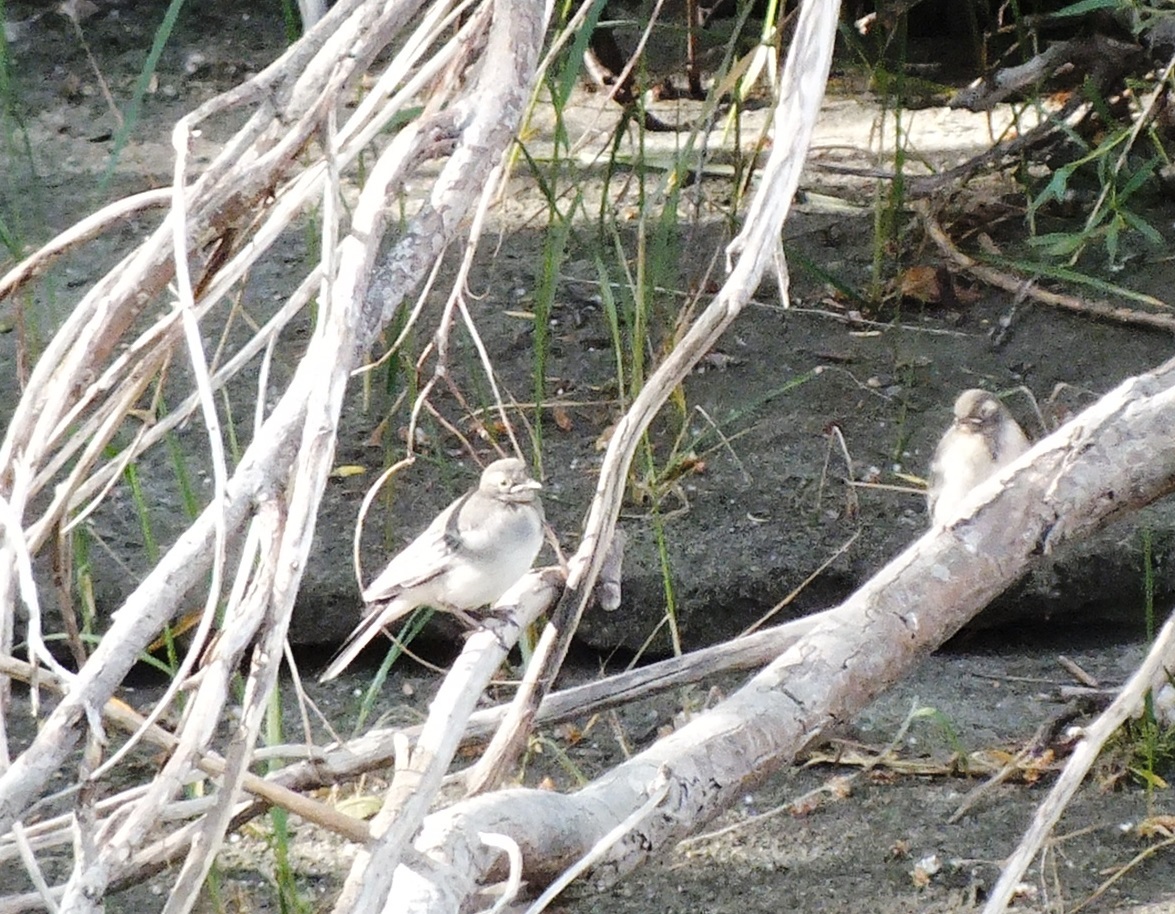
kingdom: Animalia
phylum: Chordata
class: Aves
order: Passeriformes
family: Motacillidae
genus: Motacilla
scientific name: Motacilla alba
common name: White wagtail
